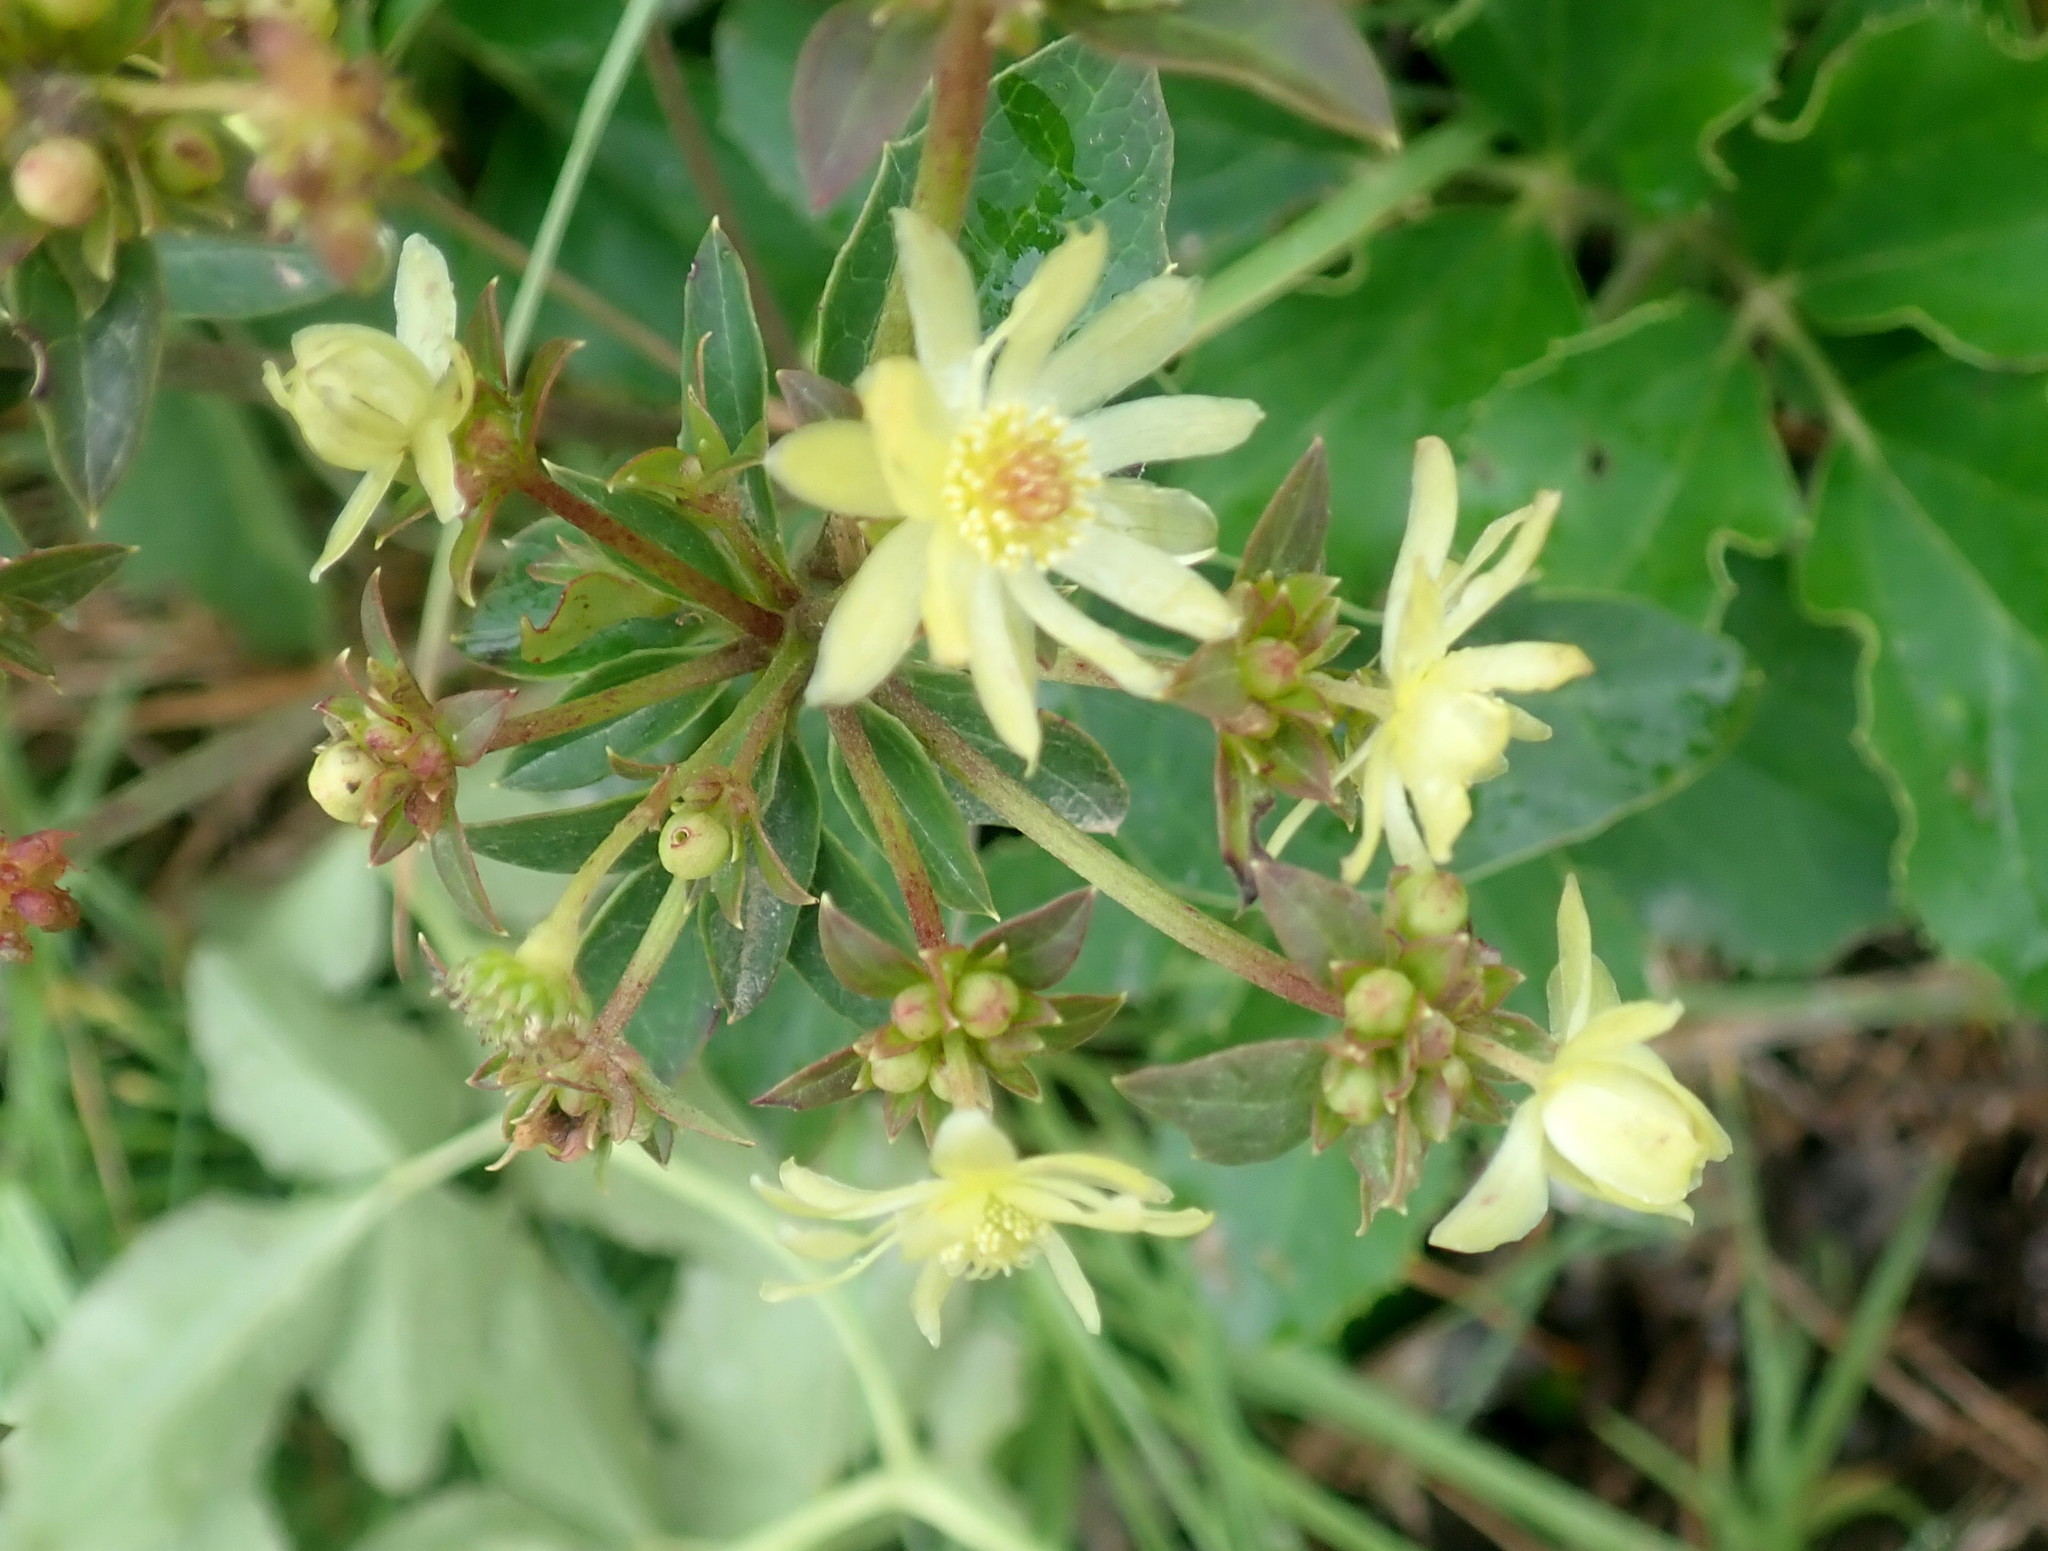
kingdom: Plantae
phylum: Tracheophyta
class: Magnoliopsida
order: Ranunculales
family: Ranunculaceae
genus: Knowltonia
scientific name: Knowltonia vesicatoria
